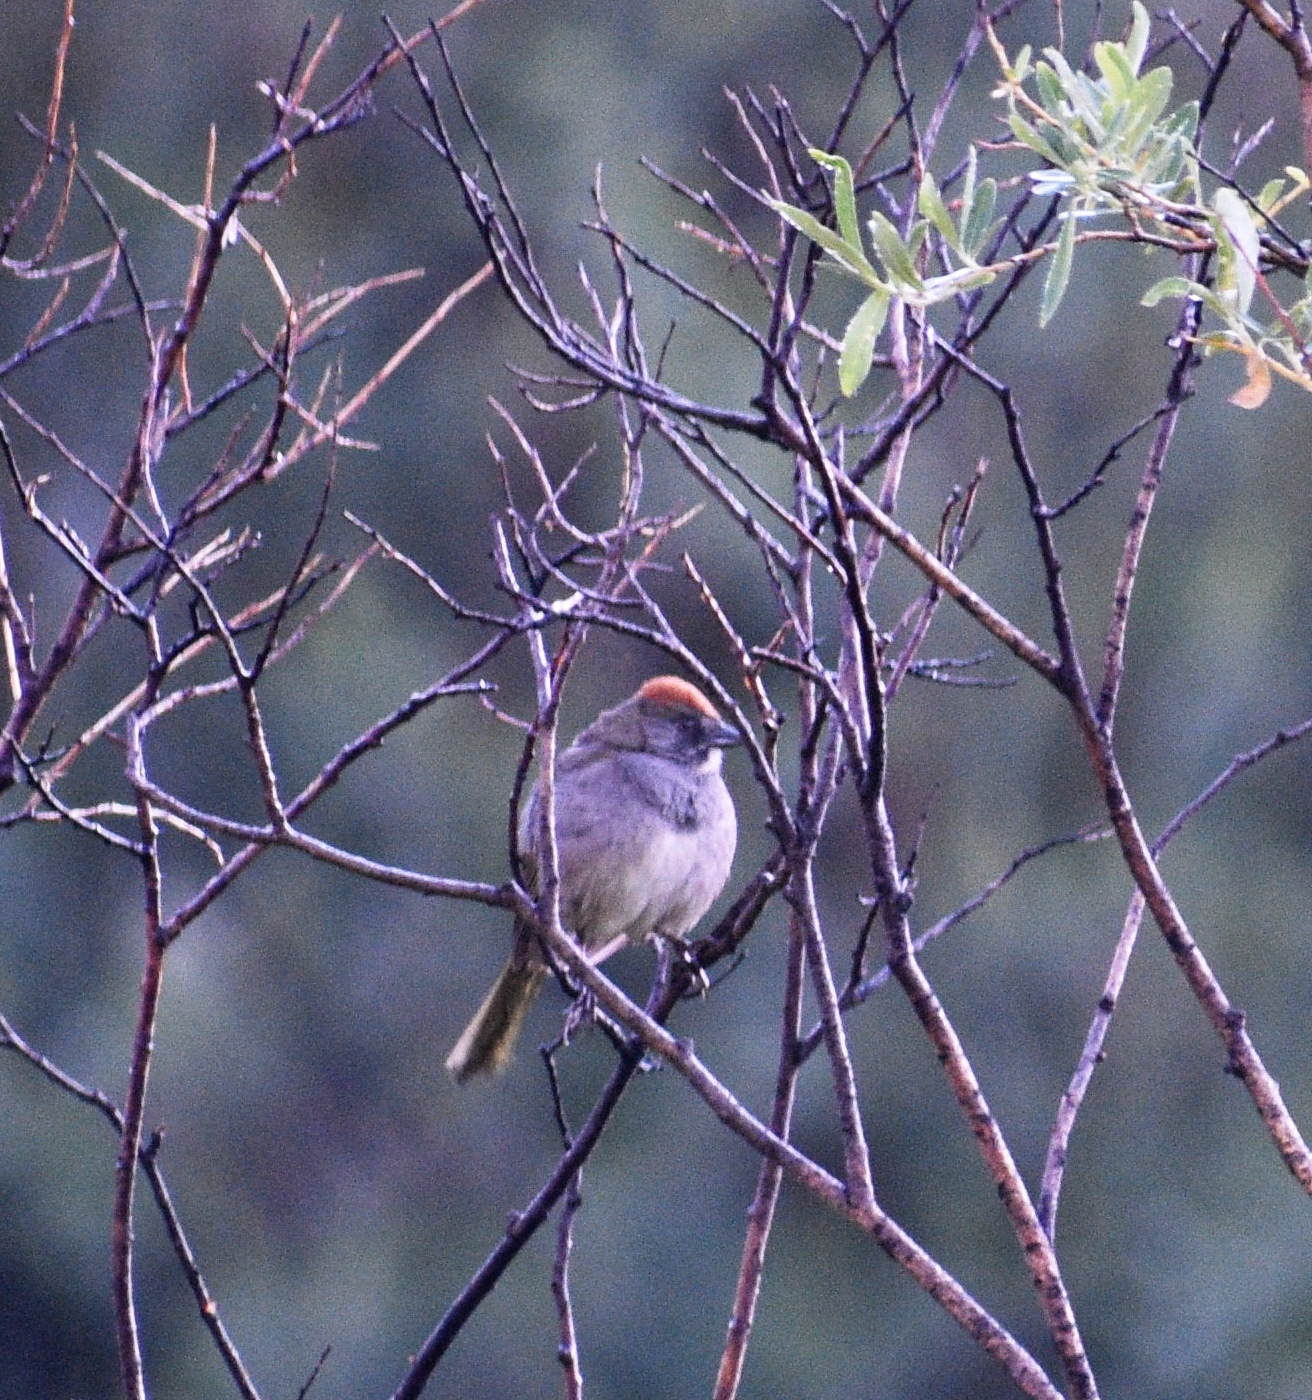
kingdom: Animalia
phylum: Chordata
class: Aves
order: Passeriformes
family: Passerellidae
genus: Pipilo
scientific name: Pipilo chlorurus
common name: Green-tailed towhee
